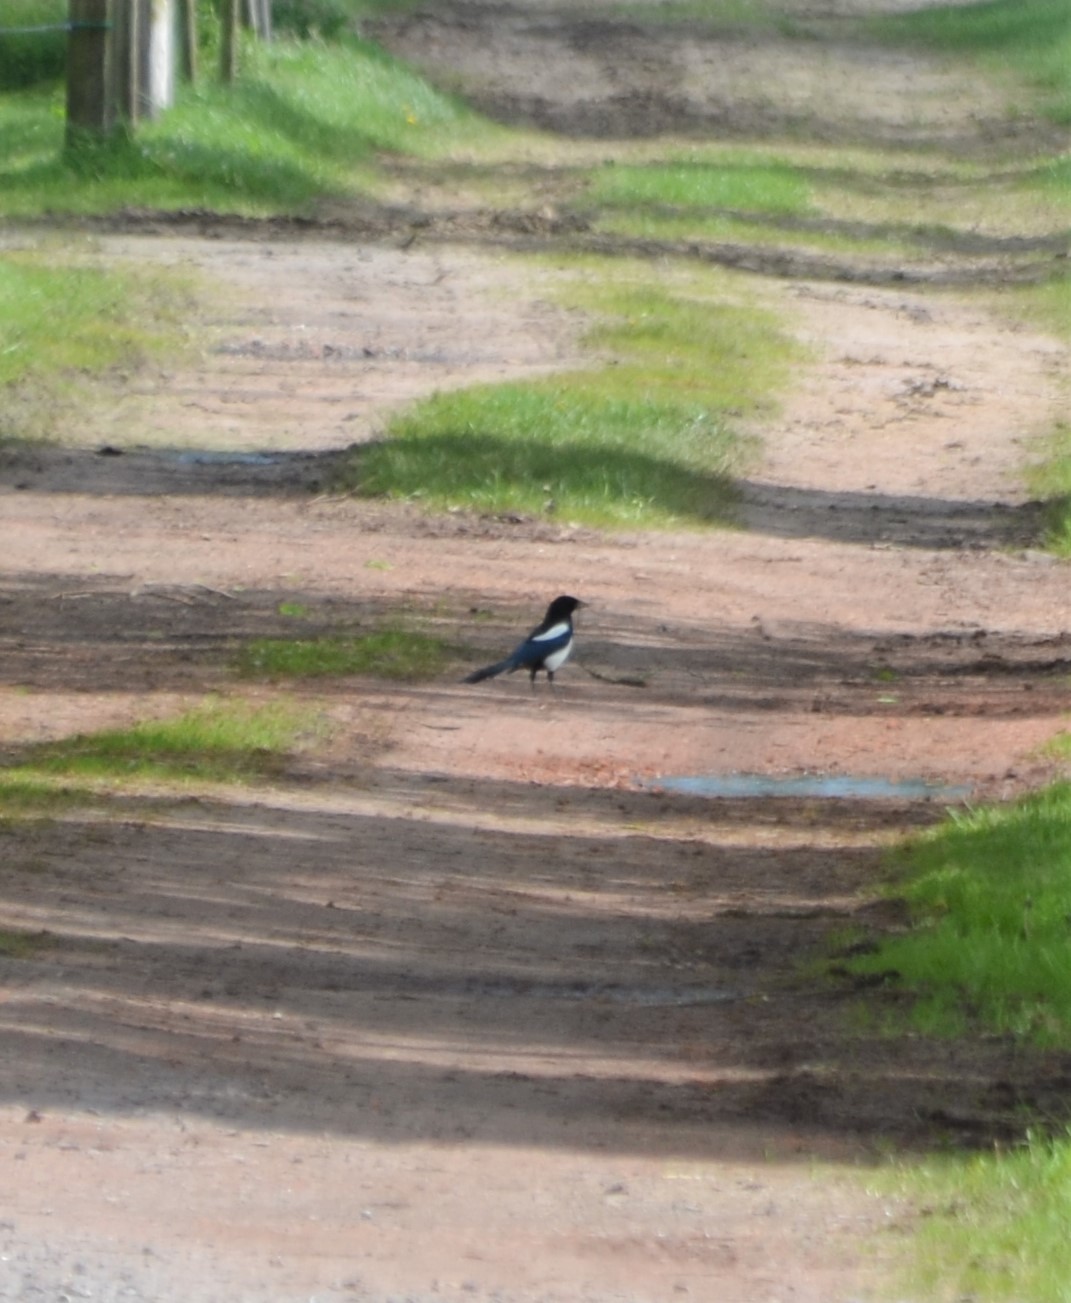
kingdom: Animalia
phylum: Chordata
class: Aves
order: Passeriformes
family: Corvidae
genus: Pica
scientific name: Pica pica
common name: Eurasian magpie
